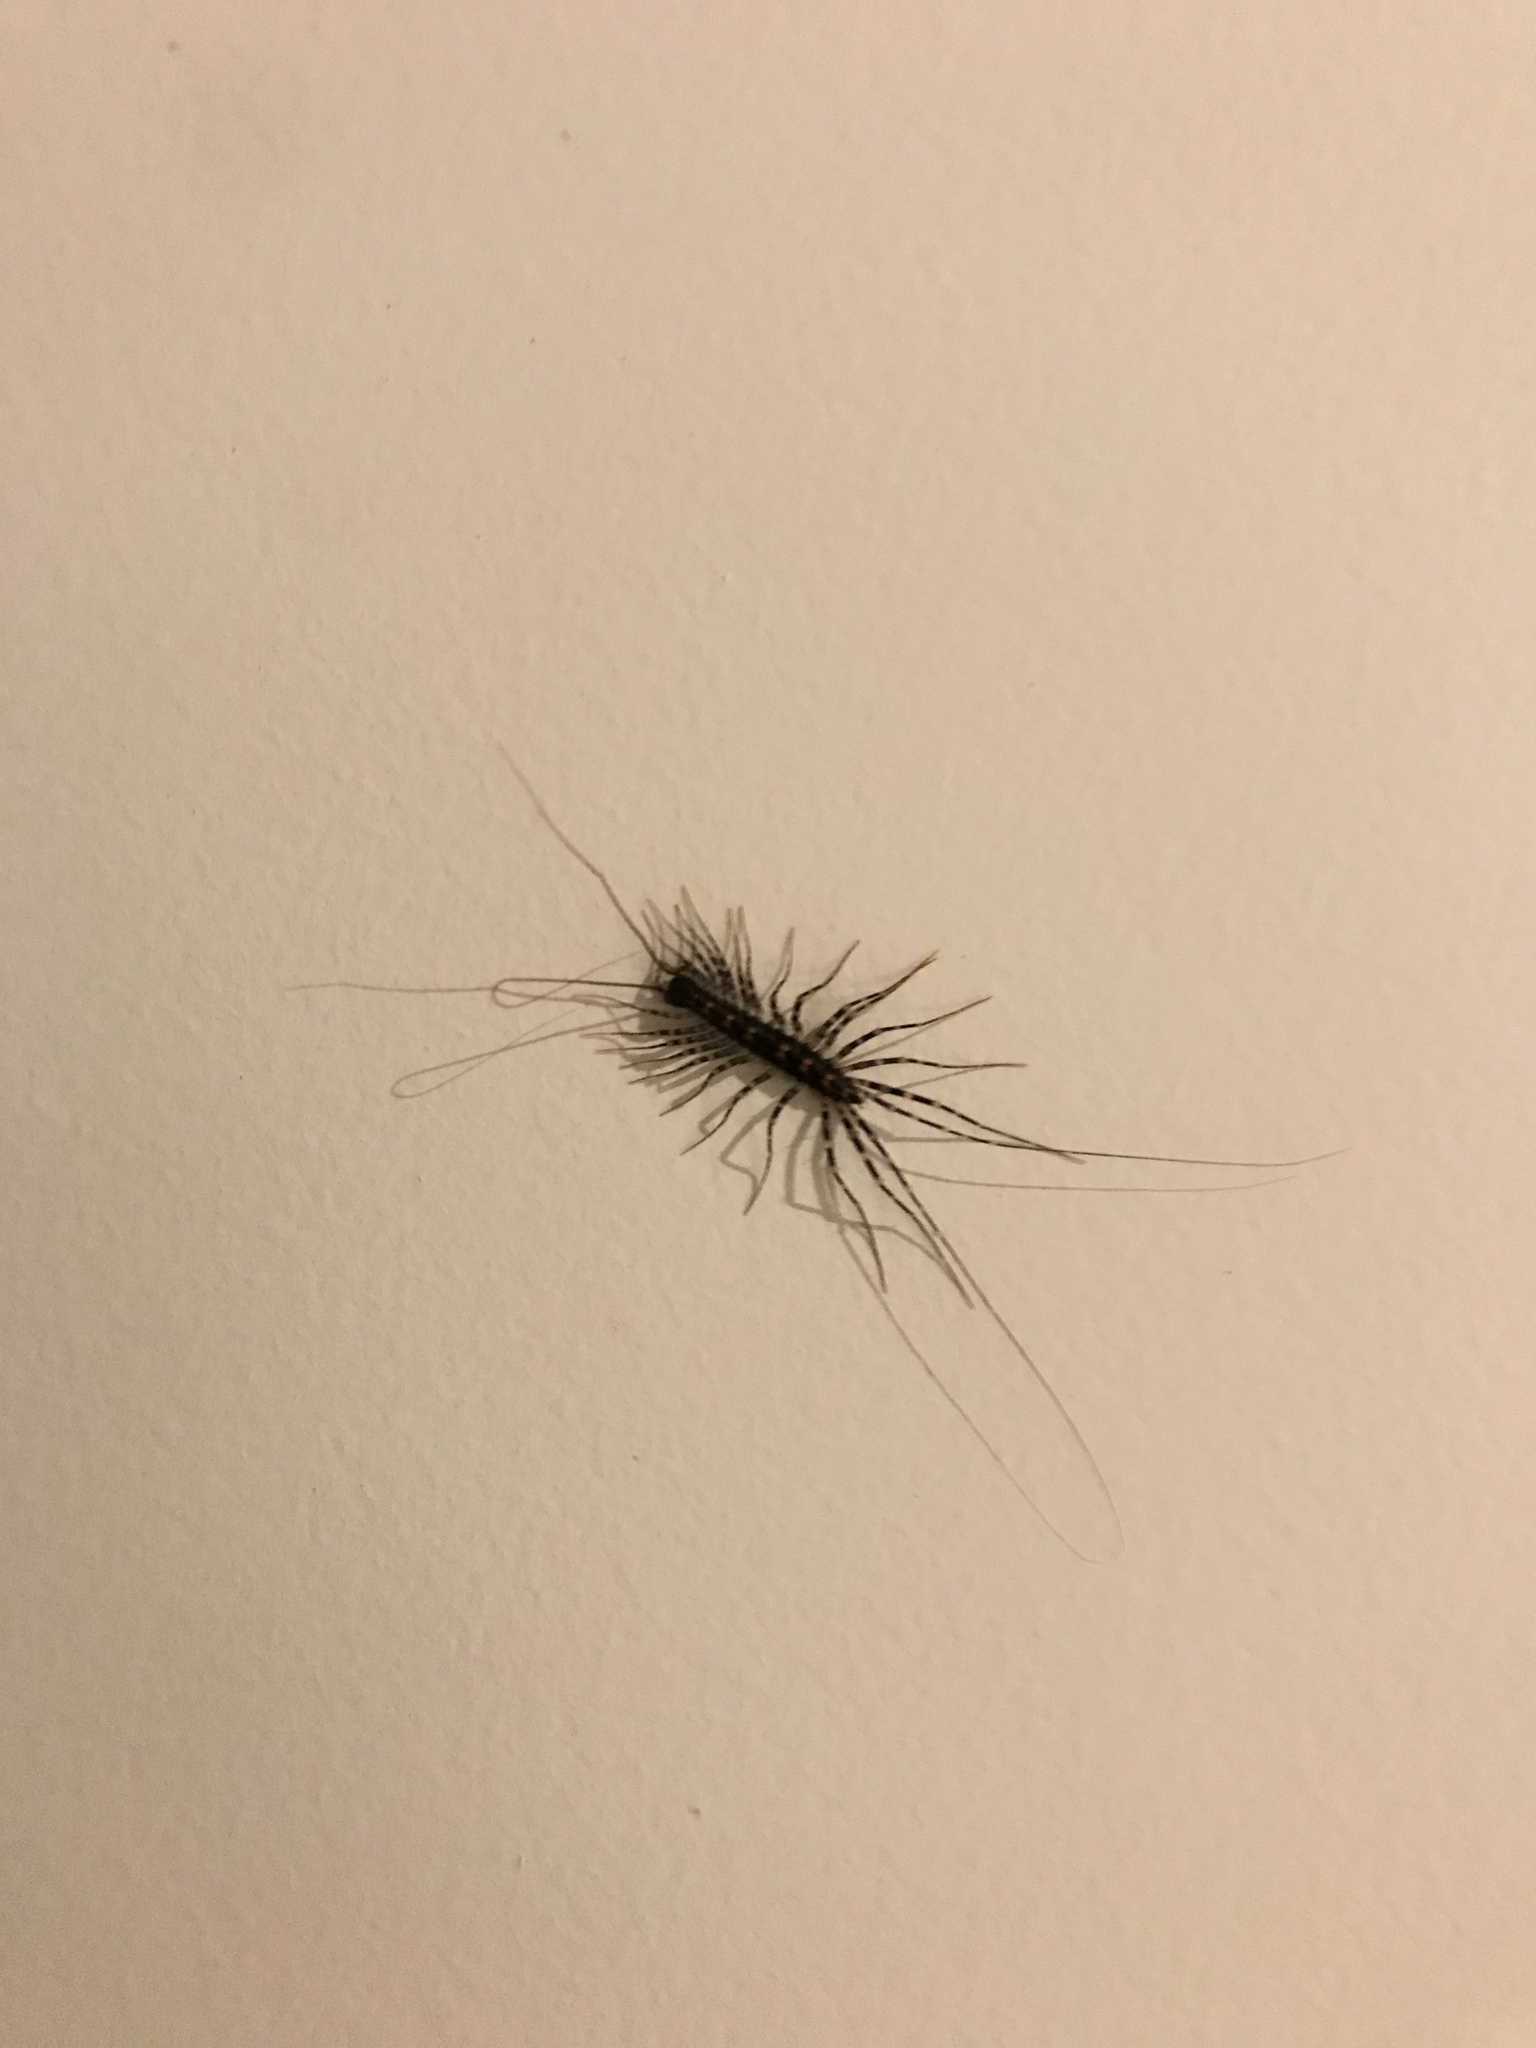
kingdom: Animalia
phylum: Arthropoda
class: Chilopoda
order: Scutigeromorpha
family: Scutigeridae
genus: Allothereua
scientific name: Allothereua maculata
